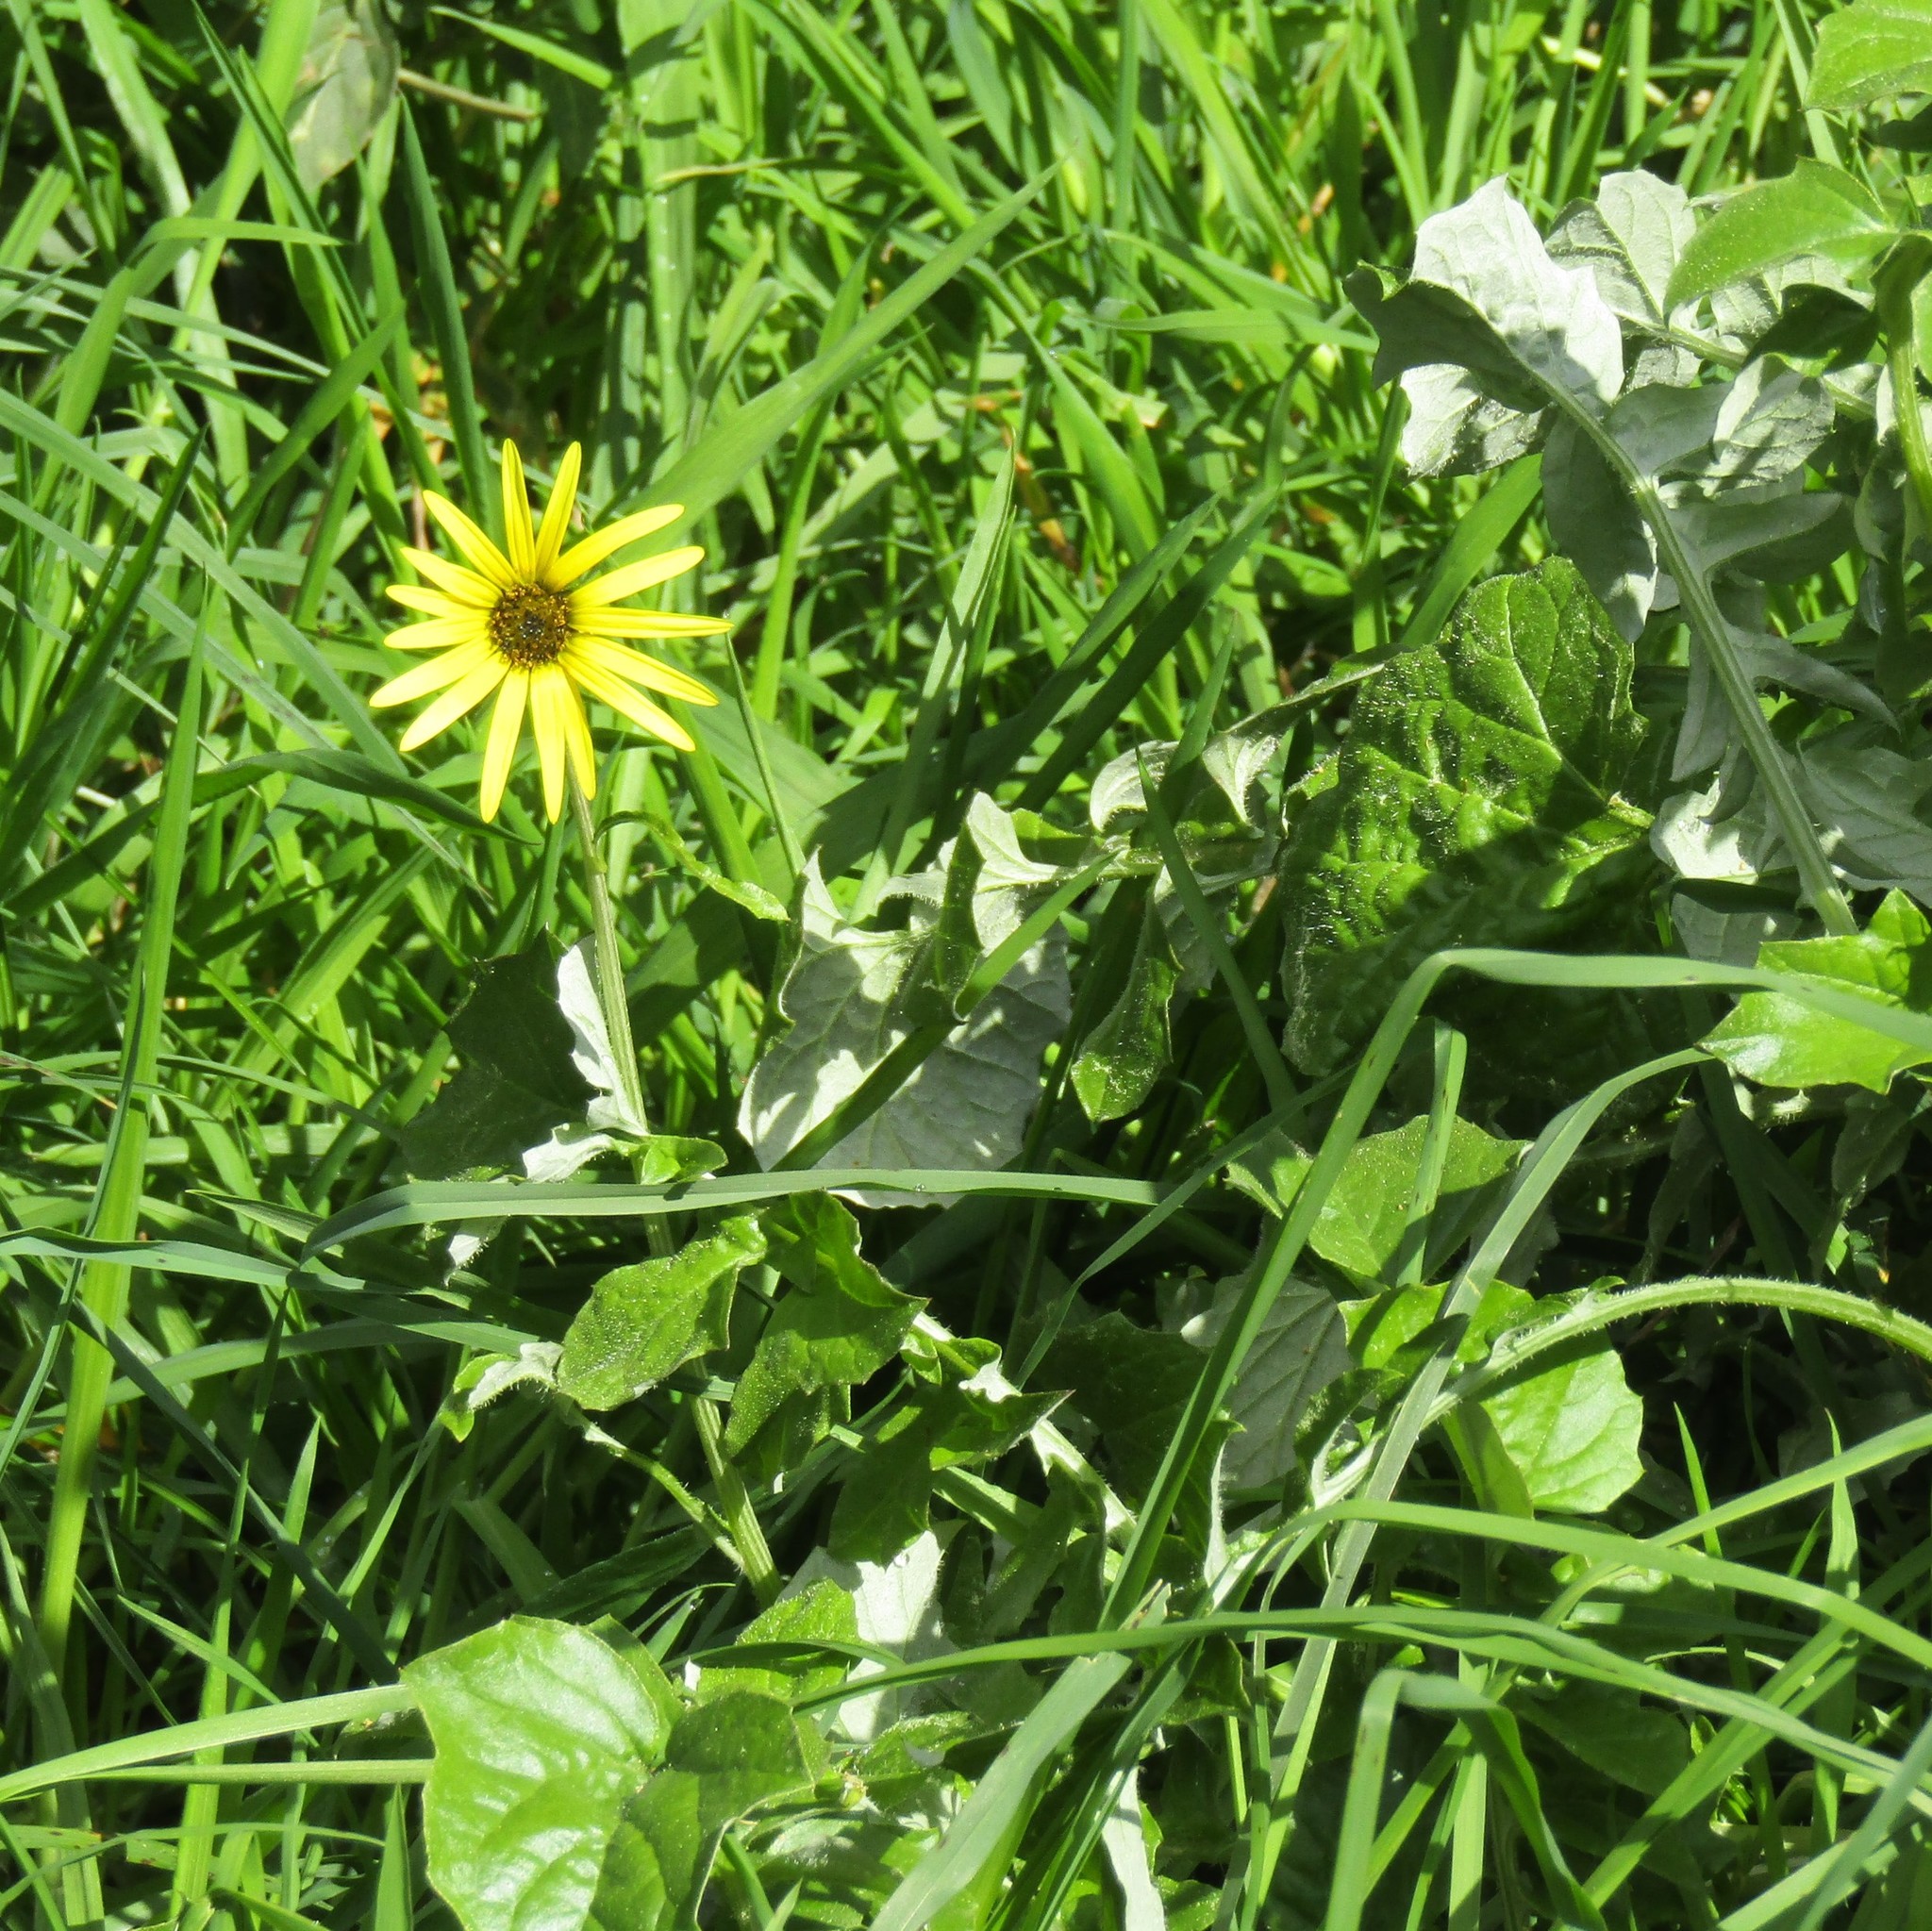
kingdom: Plantae
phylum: Tracheophyta
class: Magnoliopsida
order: Asterales
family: Asteraceae
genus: Arctotheca
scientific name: Arctotheca calendula
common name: Capeweed
